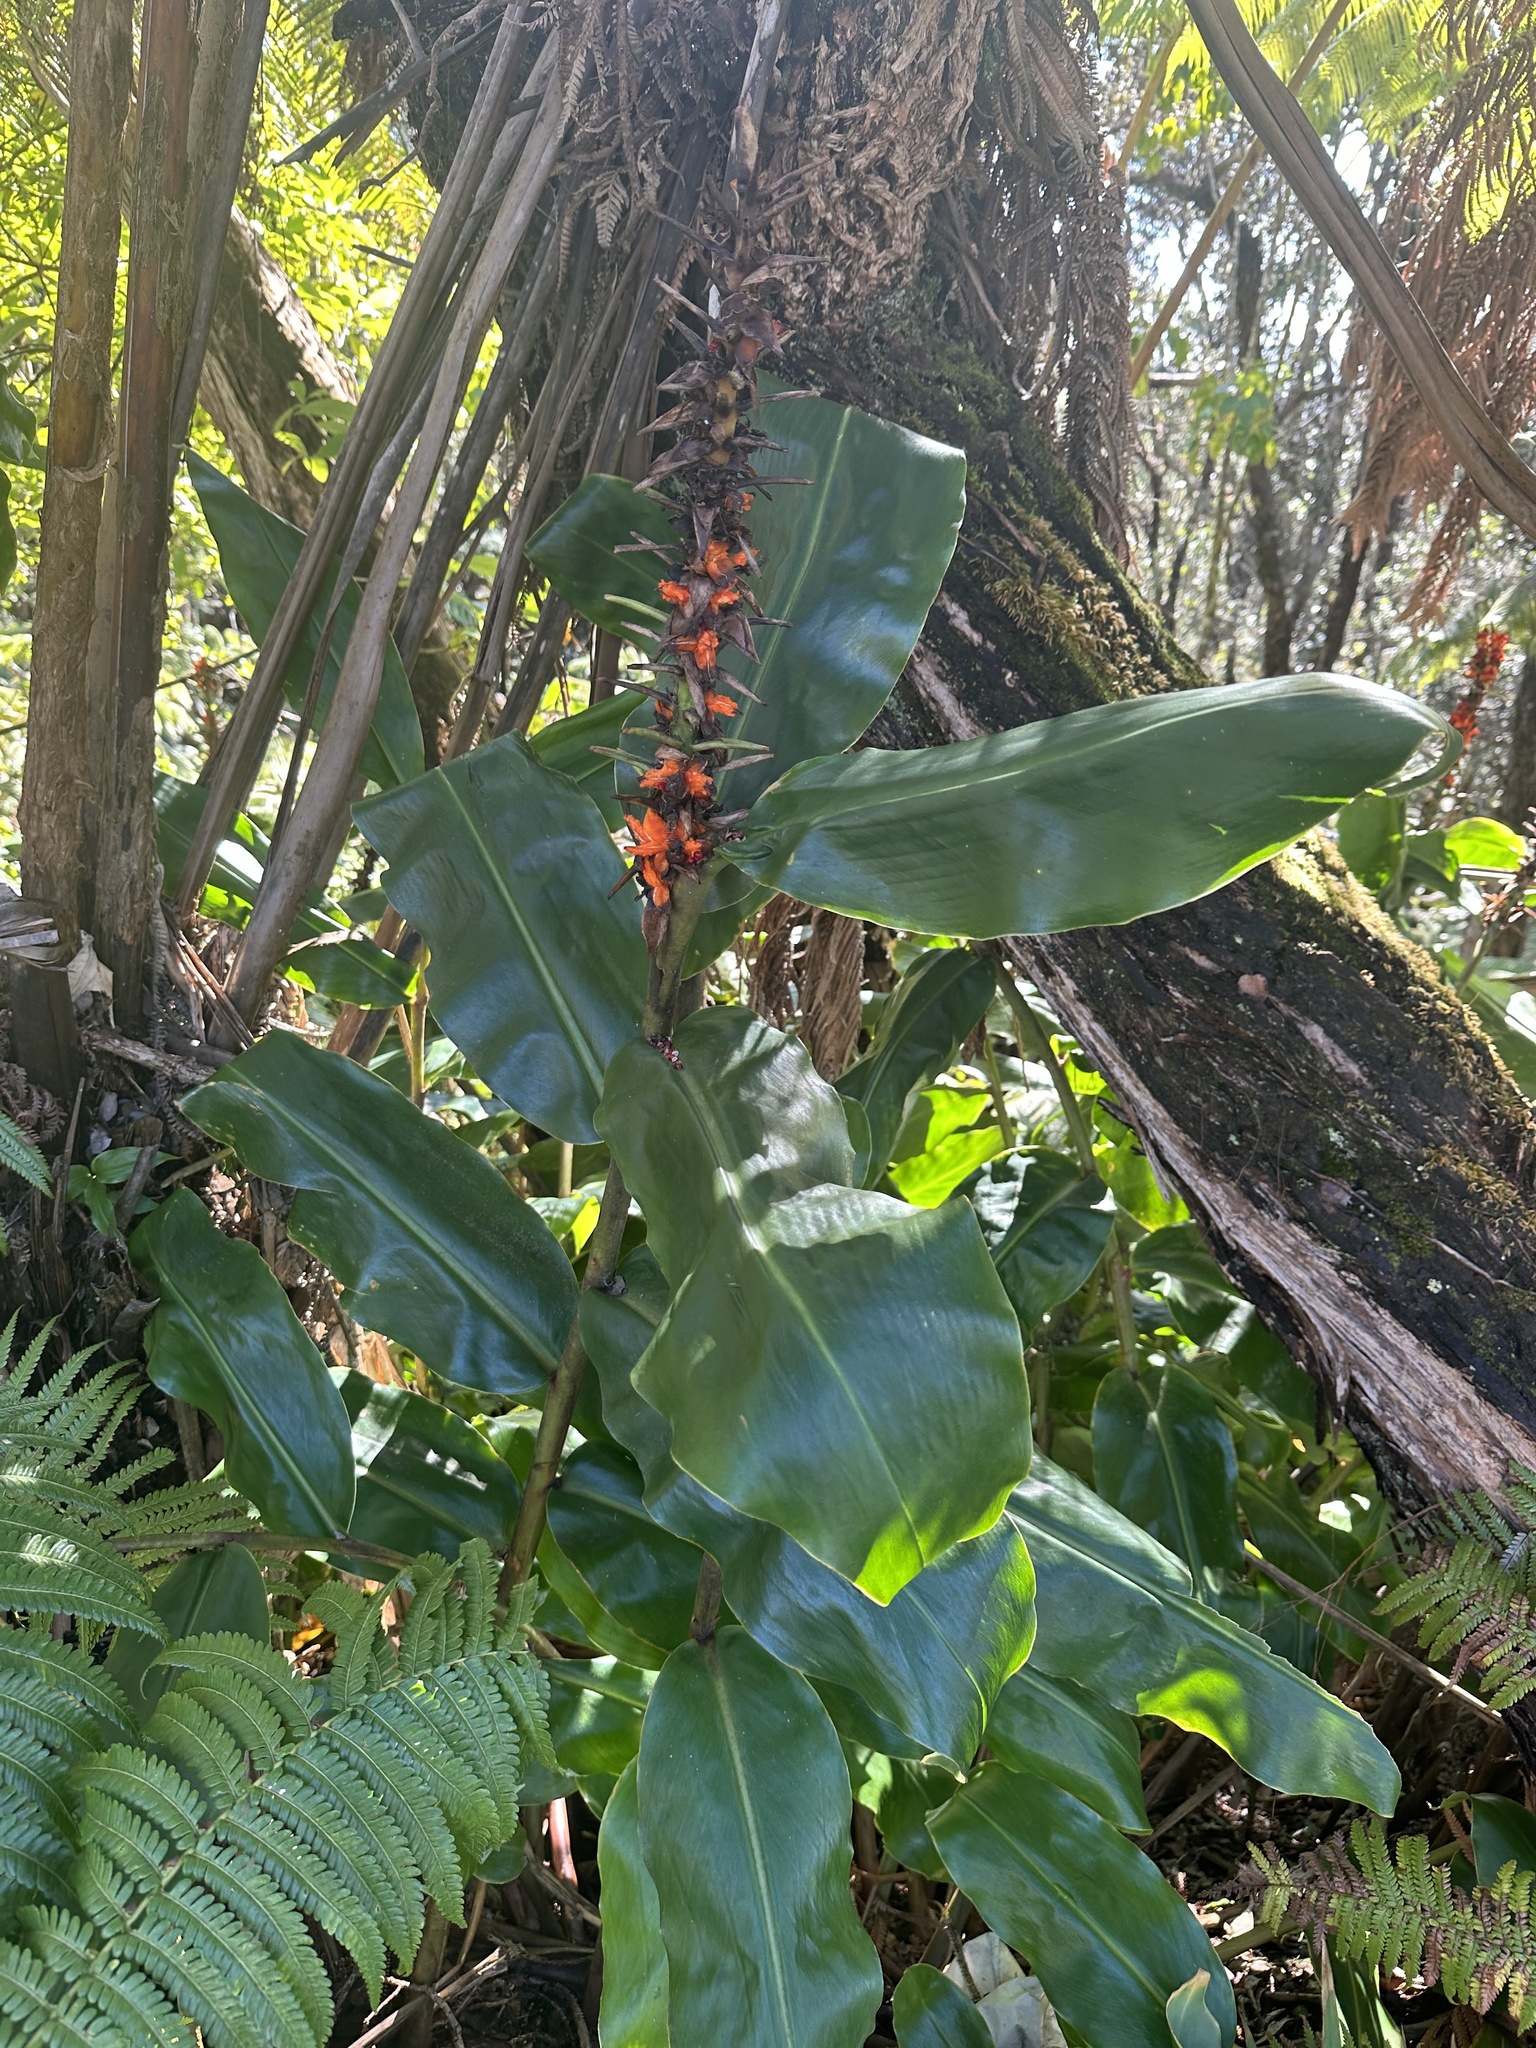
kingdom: Plantae
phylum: Tracheophyta
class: Liliopsida
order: Zingiberales
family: Zingiberaceae
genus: Hedychium
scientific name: Hedychium gardnerianum
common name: Himalayan ginger
